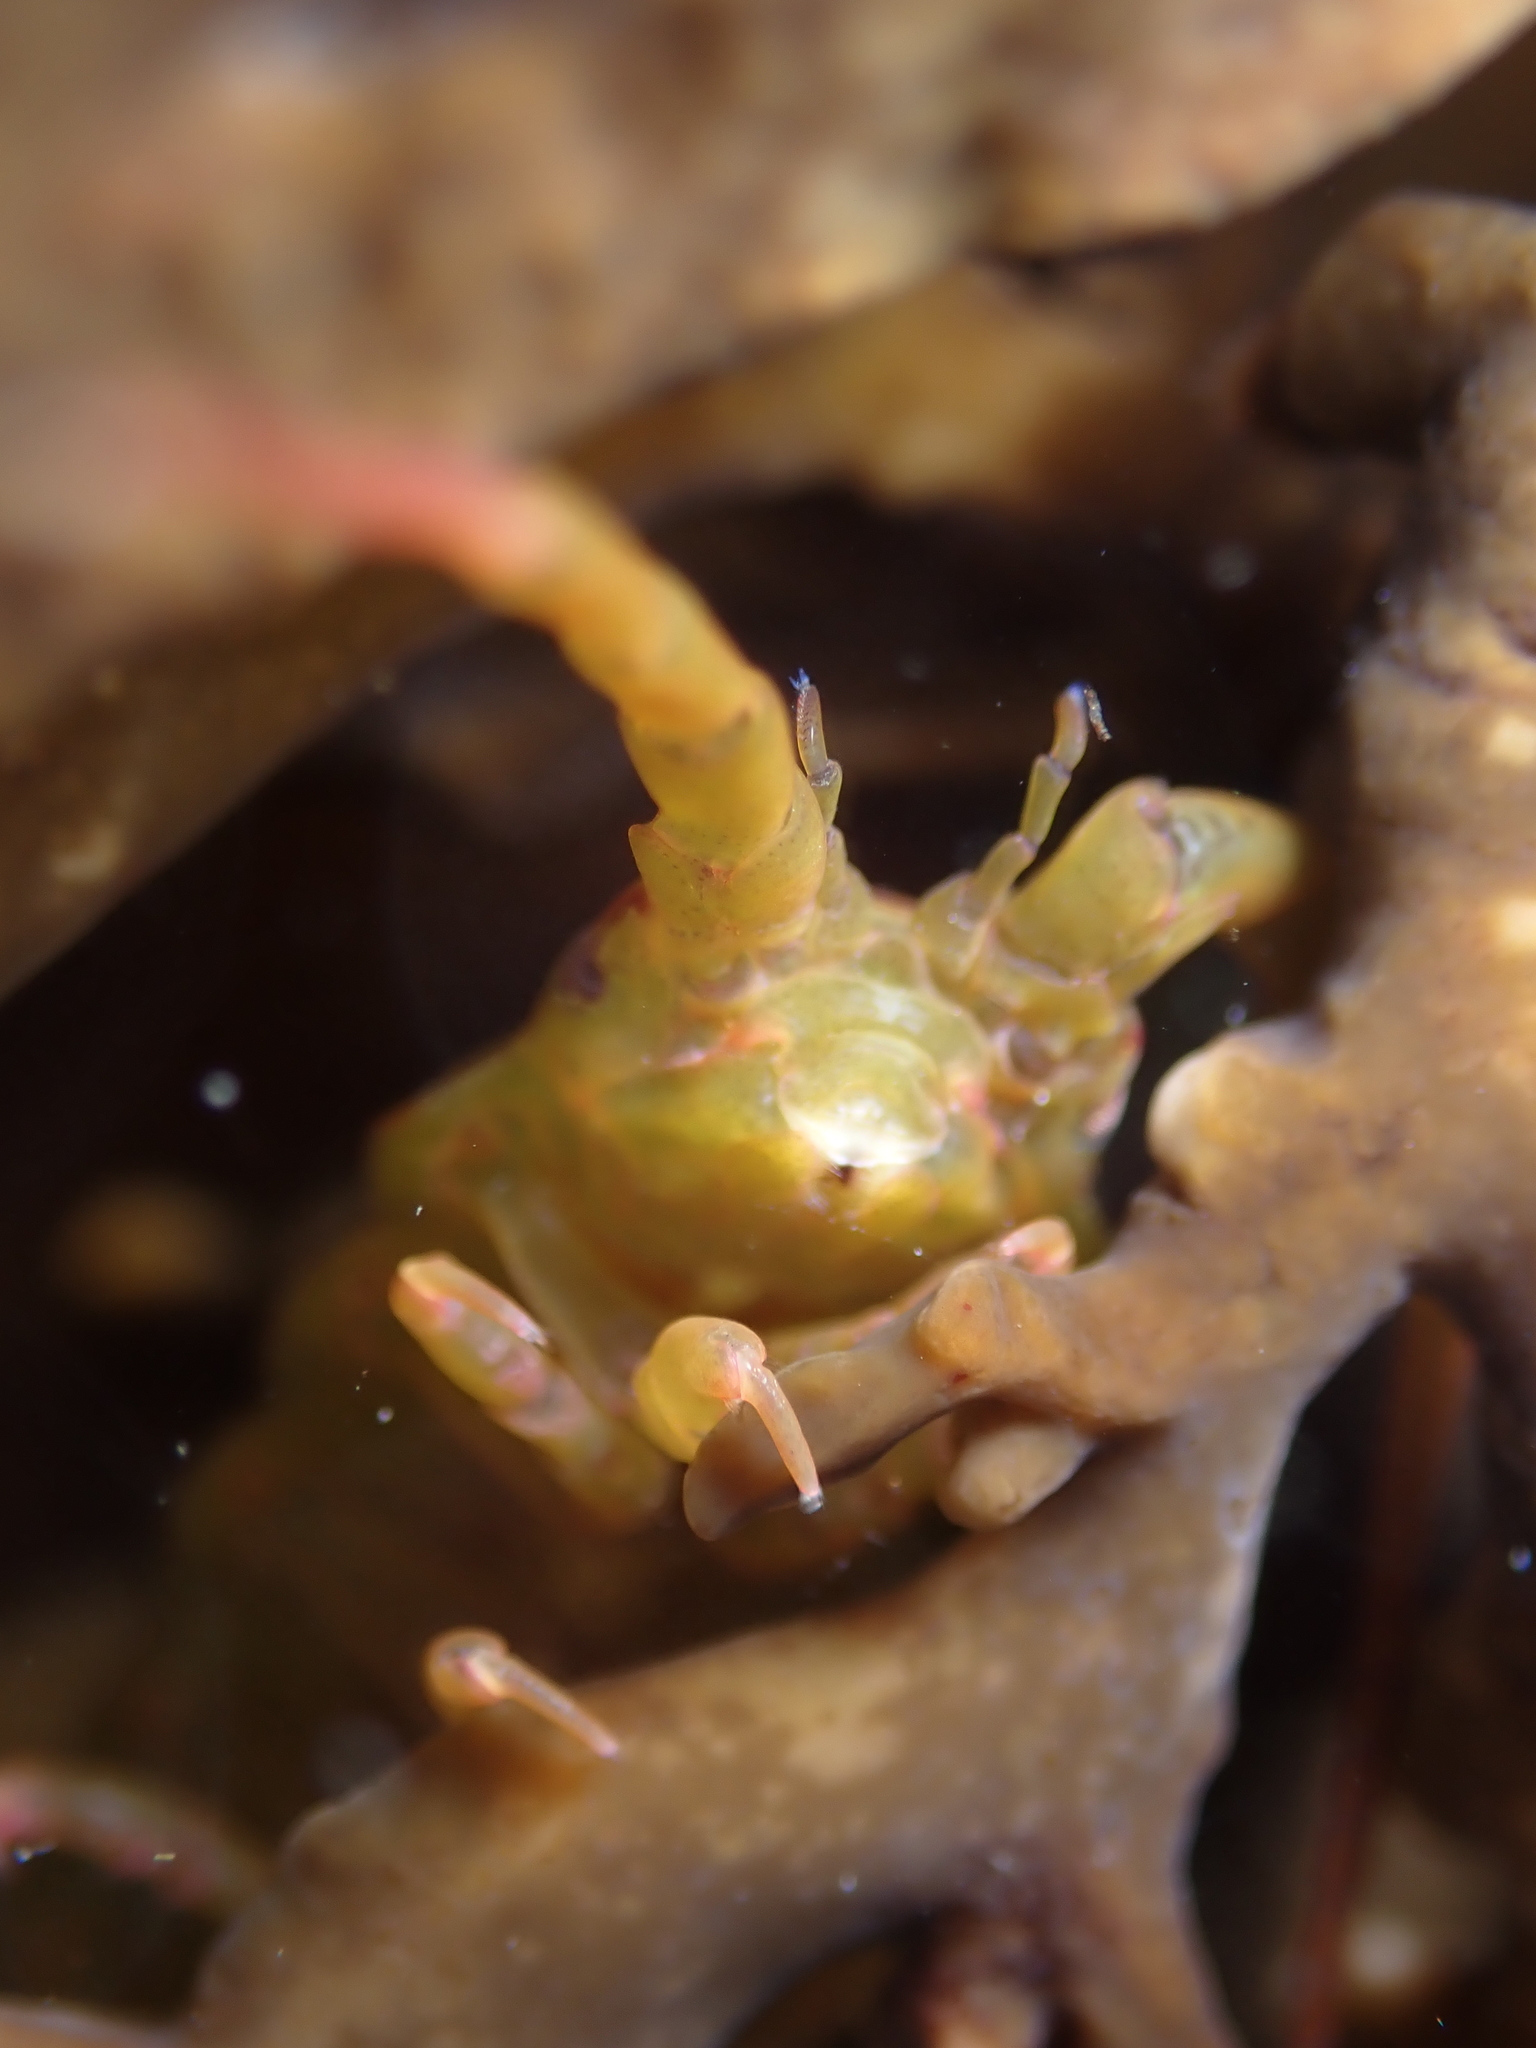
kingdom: Animalia
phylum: Arthropoda
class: Malacostraca
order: Isopoda
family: Idoteidae
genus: Euidotea
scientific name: Euidotea durvillei
